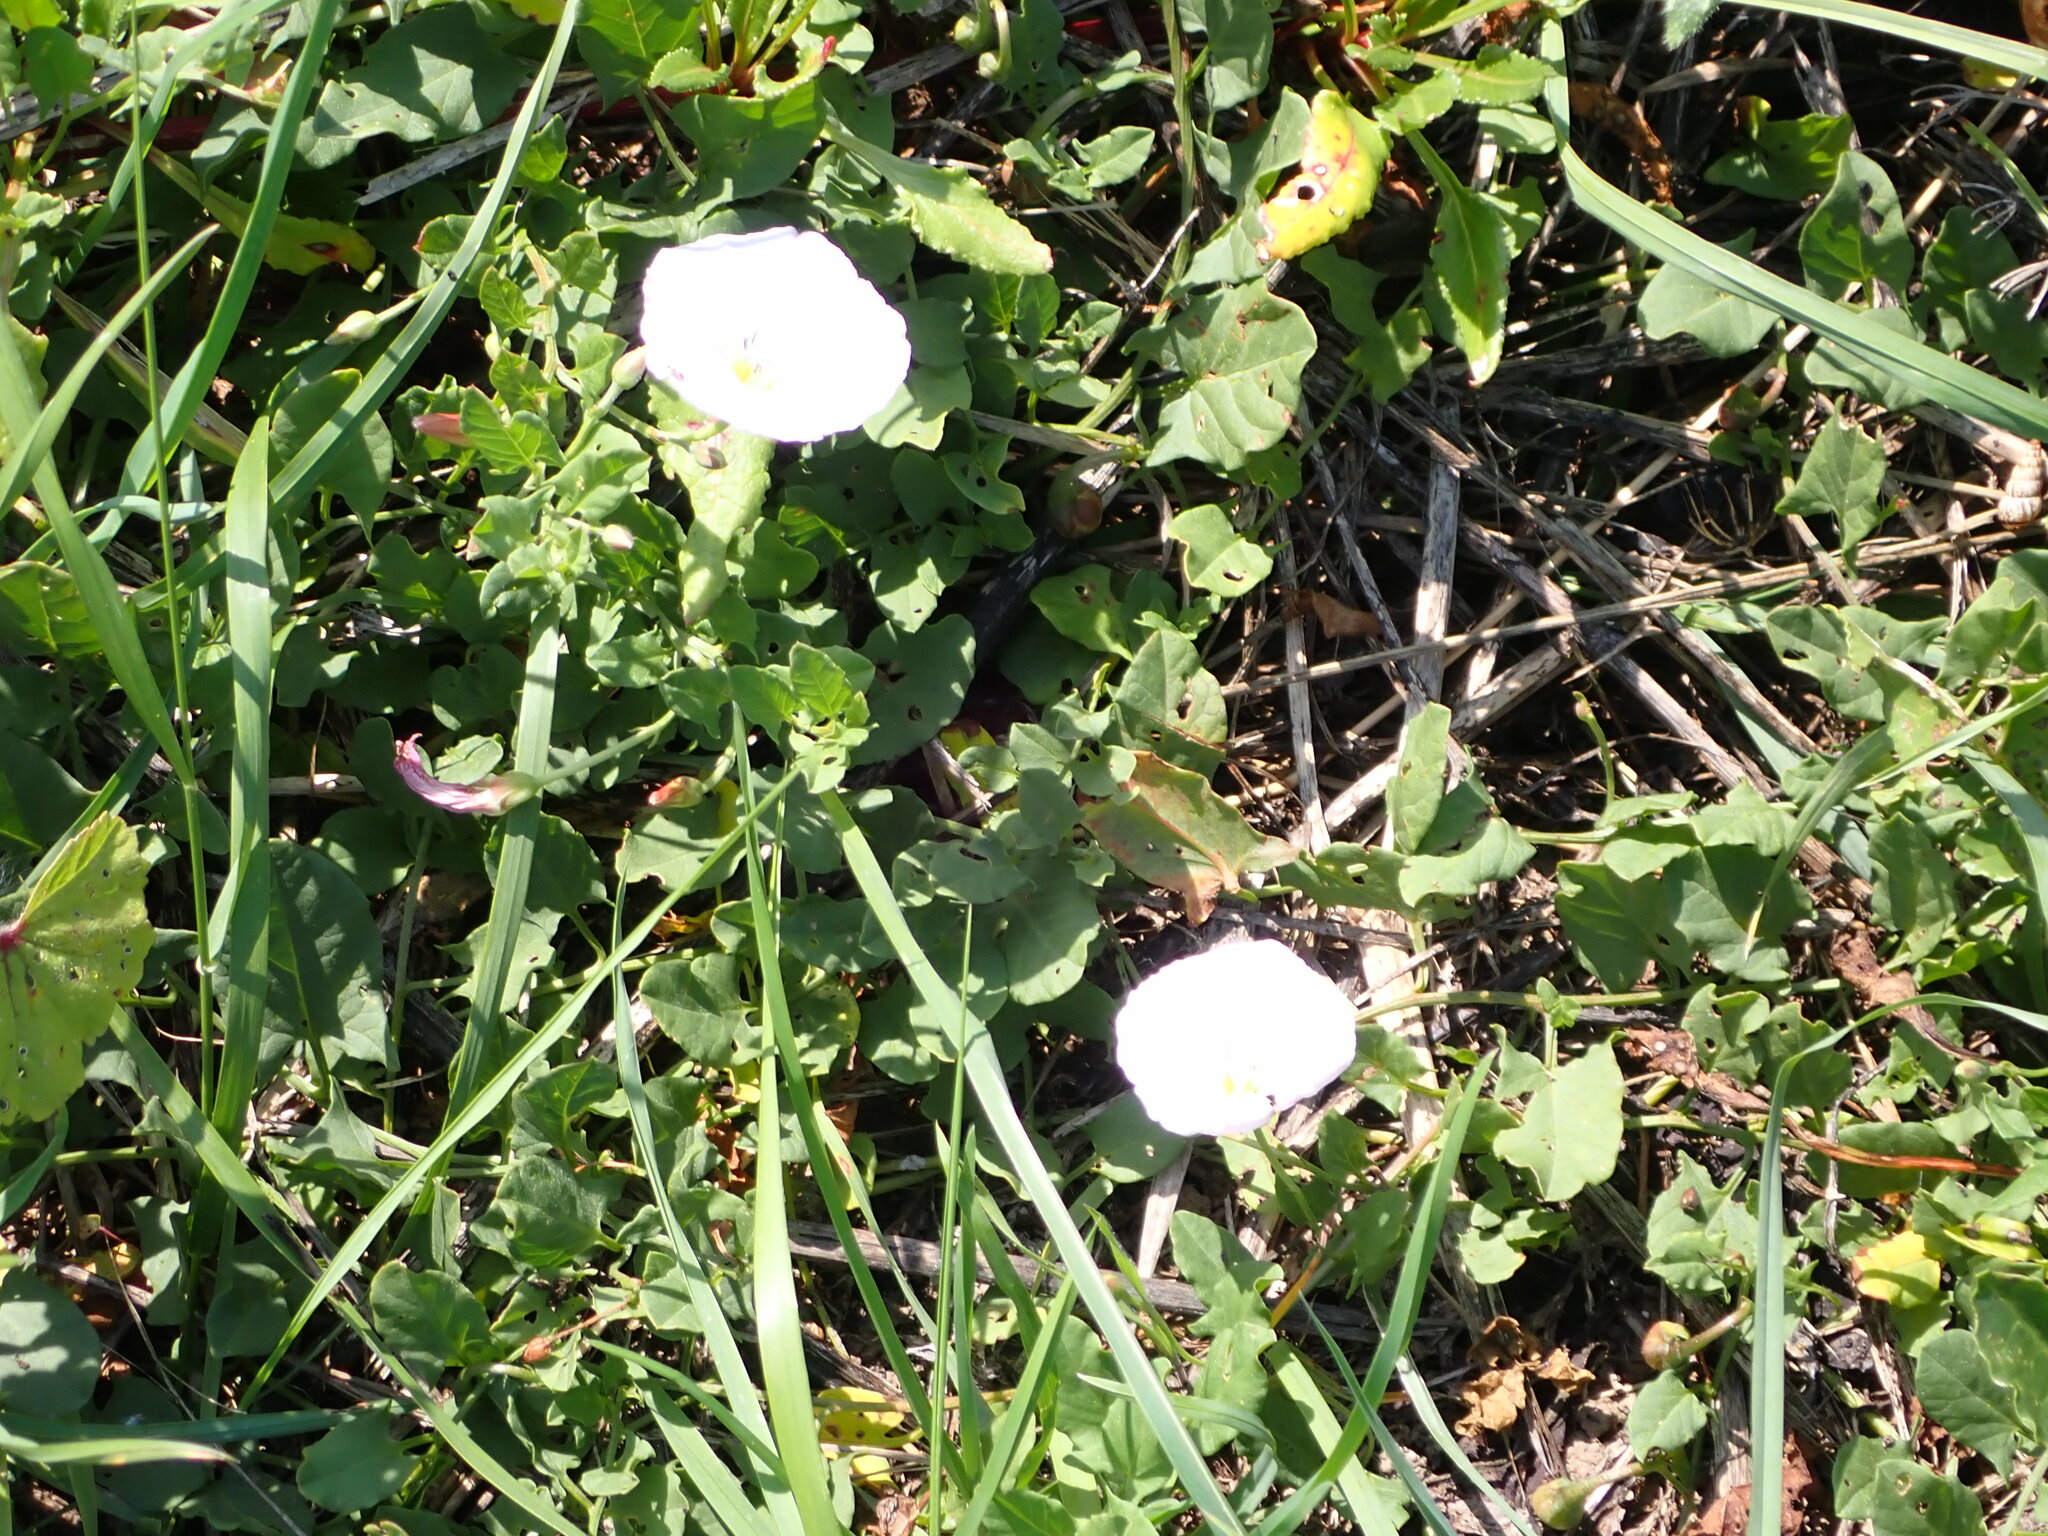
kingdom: Plantae
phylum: Tracheophyta
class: Magnoliopsida
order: Solanales
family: Convolvulaceae
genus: Convolvulus
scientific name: Convolvulus arvensis
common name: Field bindweed
